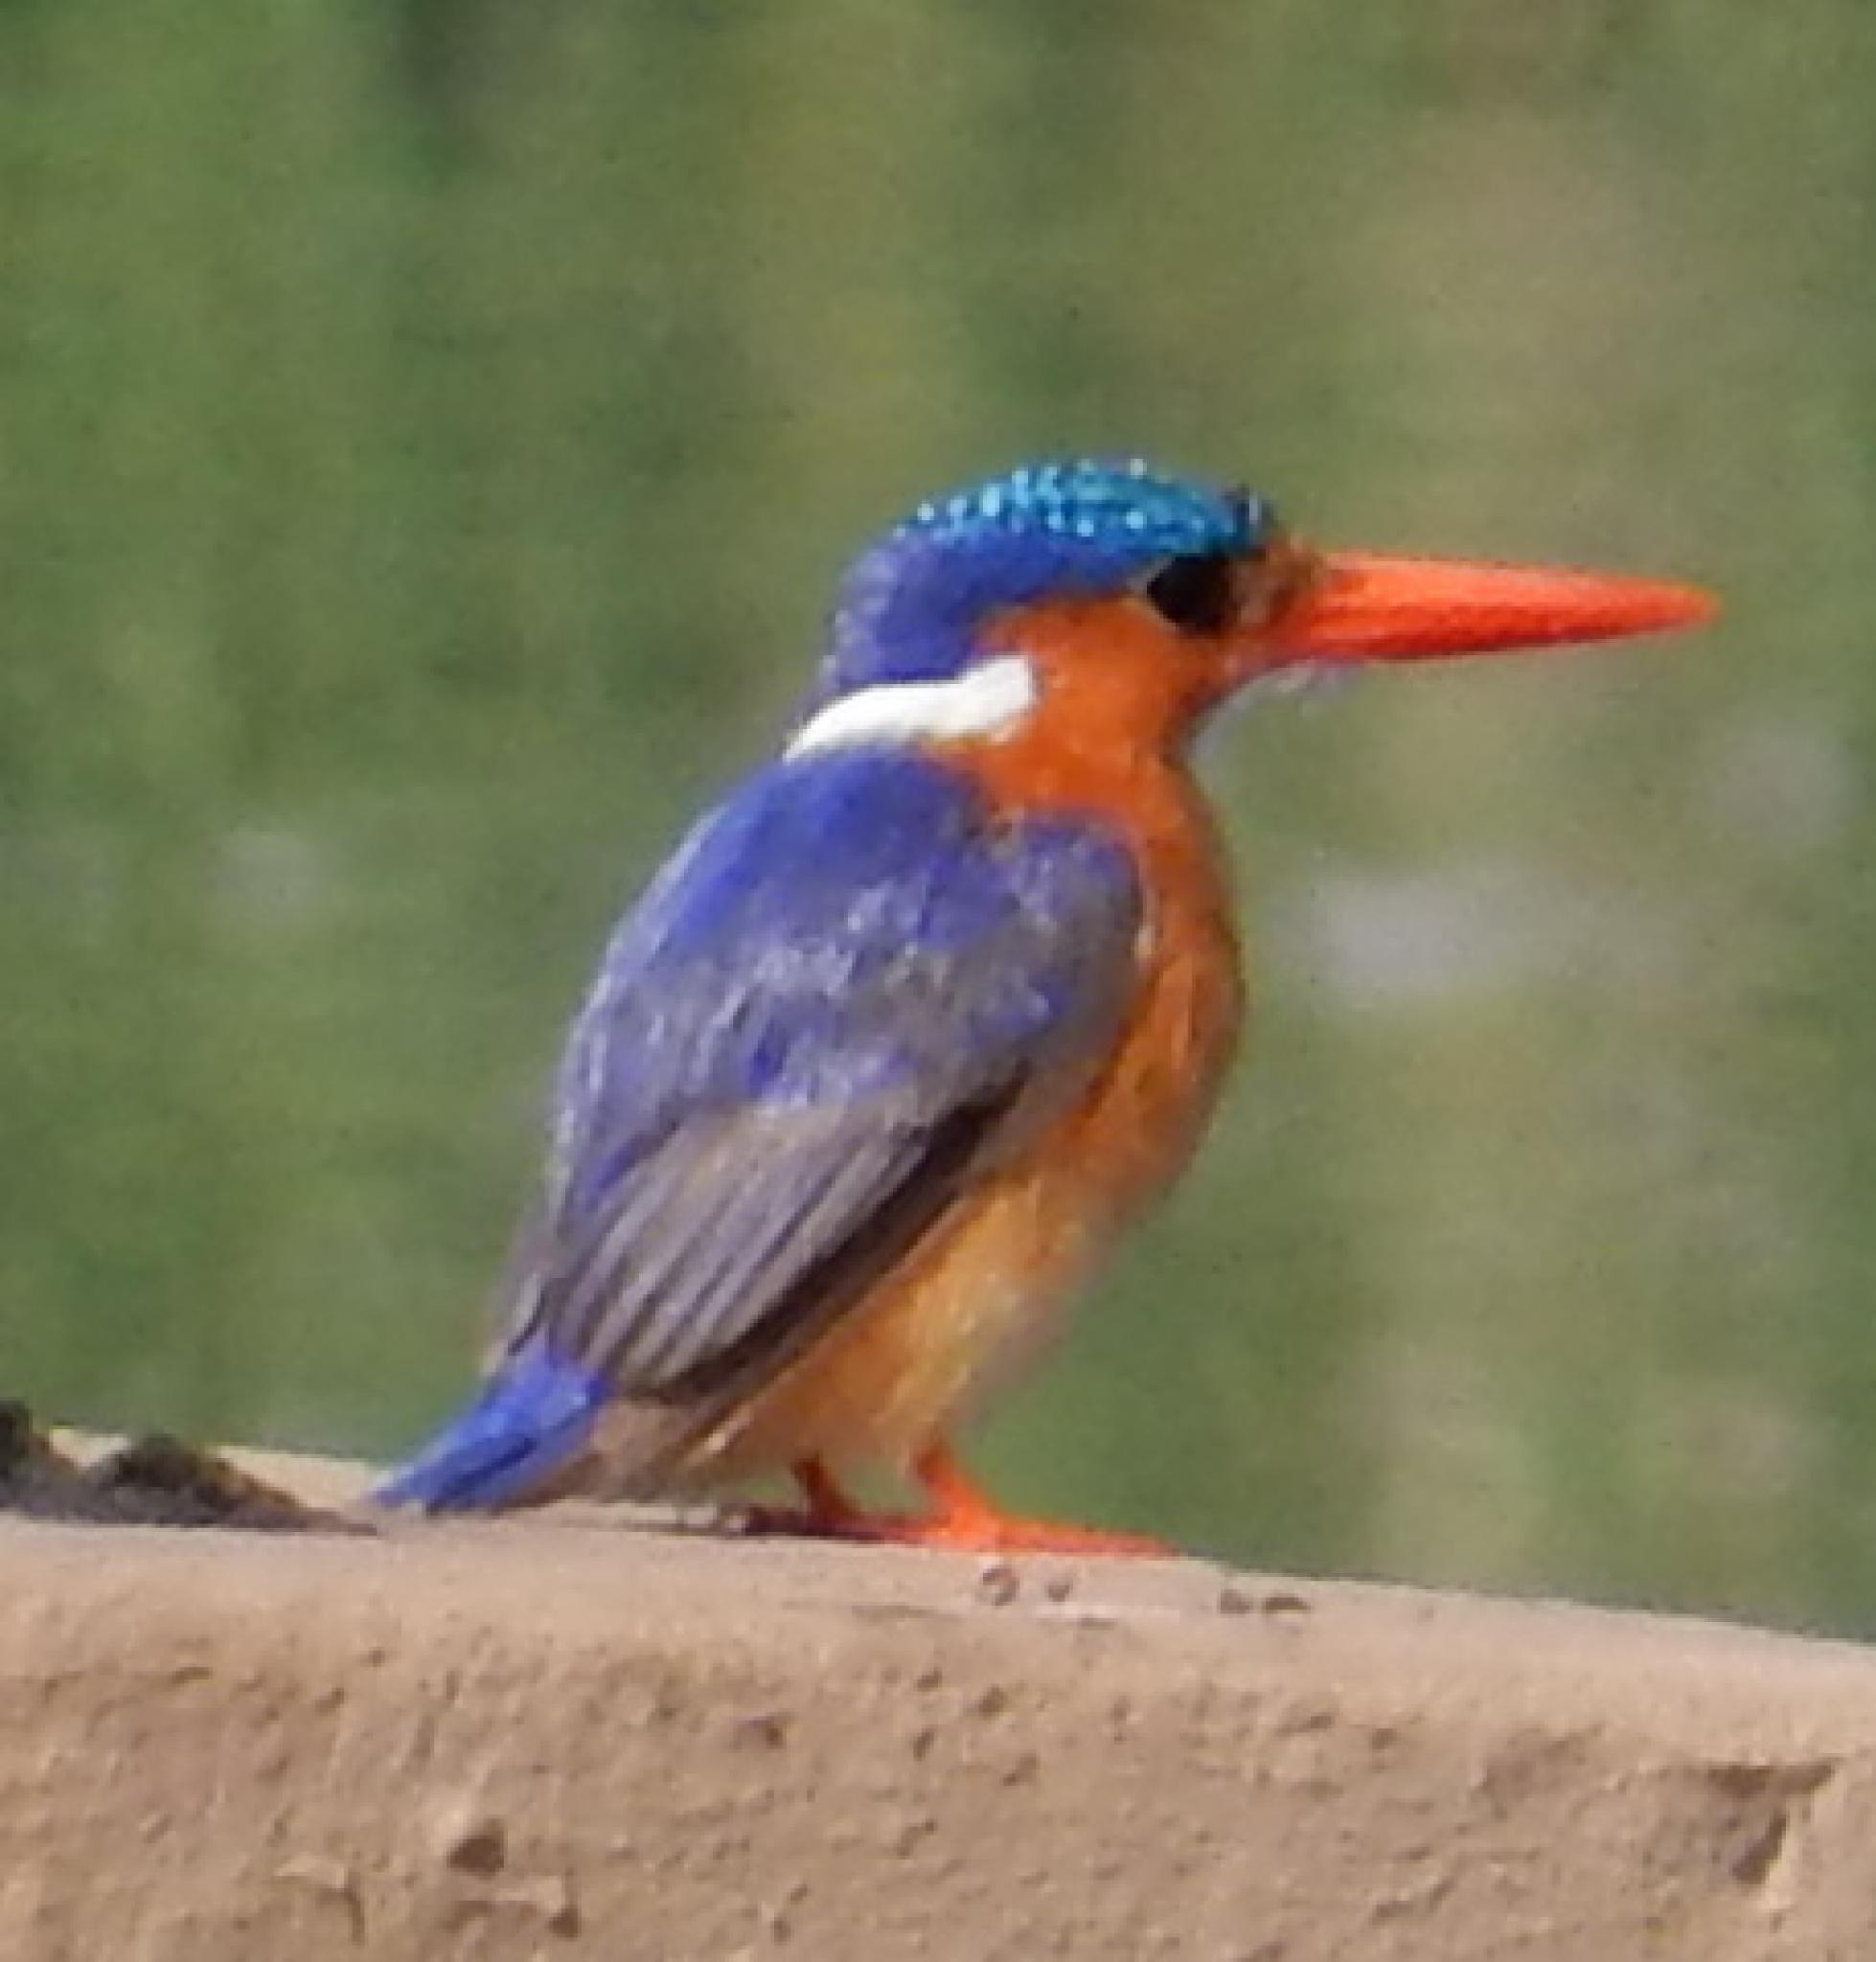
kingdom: Animalia
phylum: Chordata
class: Aves
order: Coraciiformes
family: Alcedinidae
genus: Corythornis
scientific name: Corythornis cristatus
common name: Malachite kingfisher
